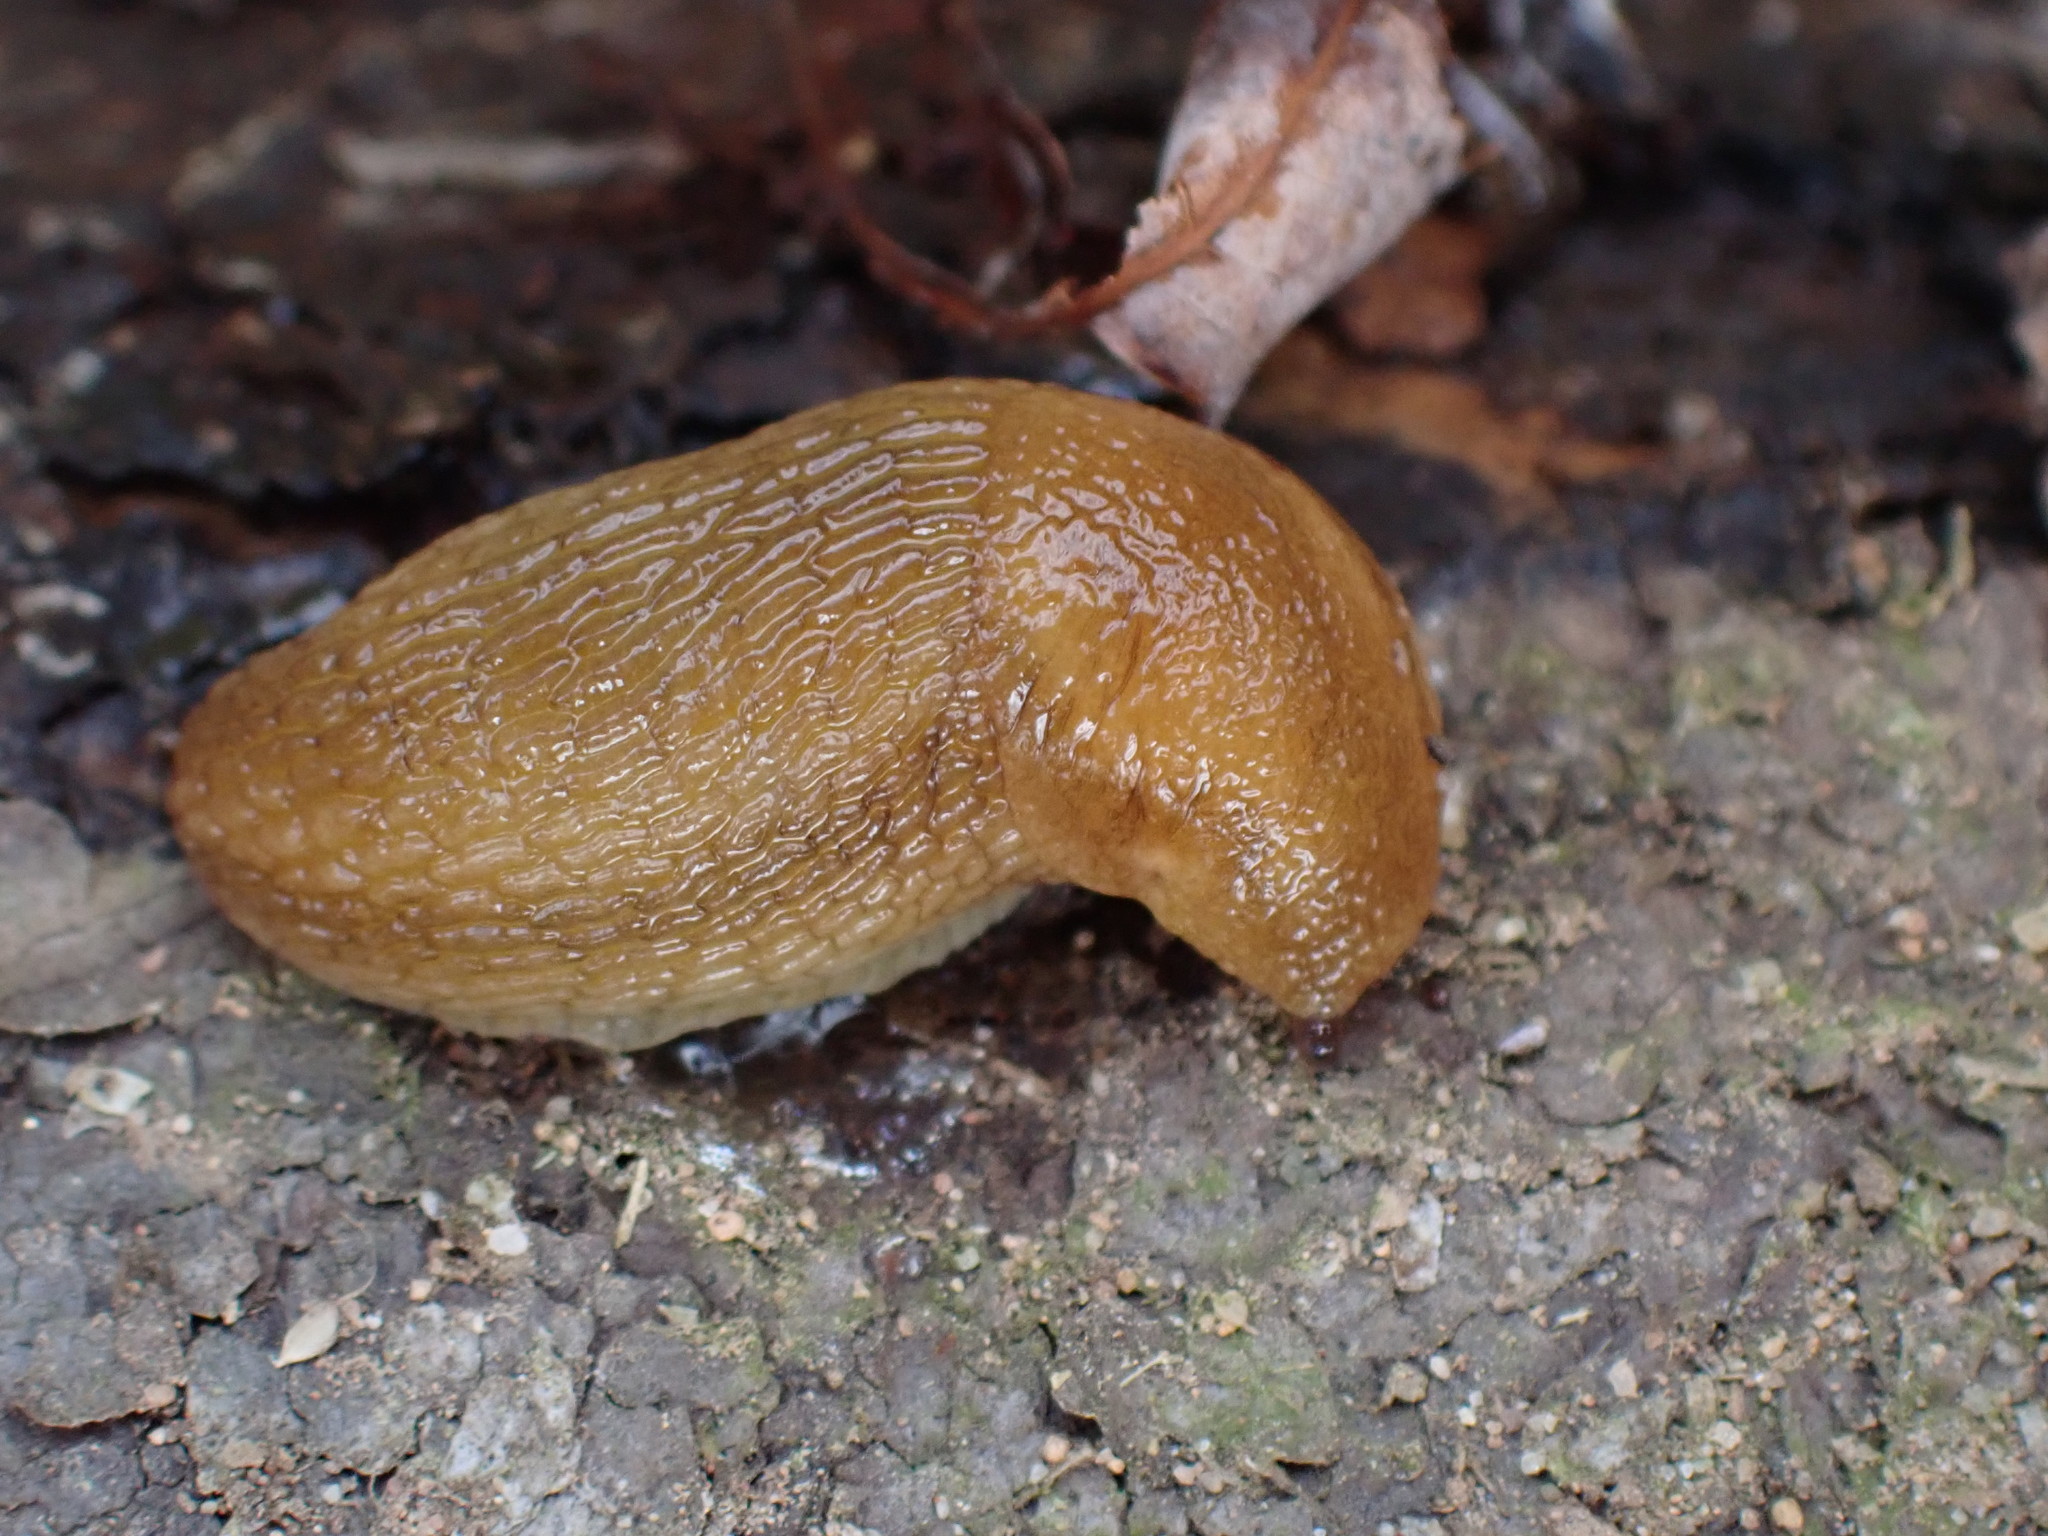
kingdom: Animalia
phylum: Mollusca
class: Gastropoda
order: Stylommatophora
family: Arionidae
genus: Arion
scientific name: Arion subfuscus
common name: Dusky arion
